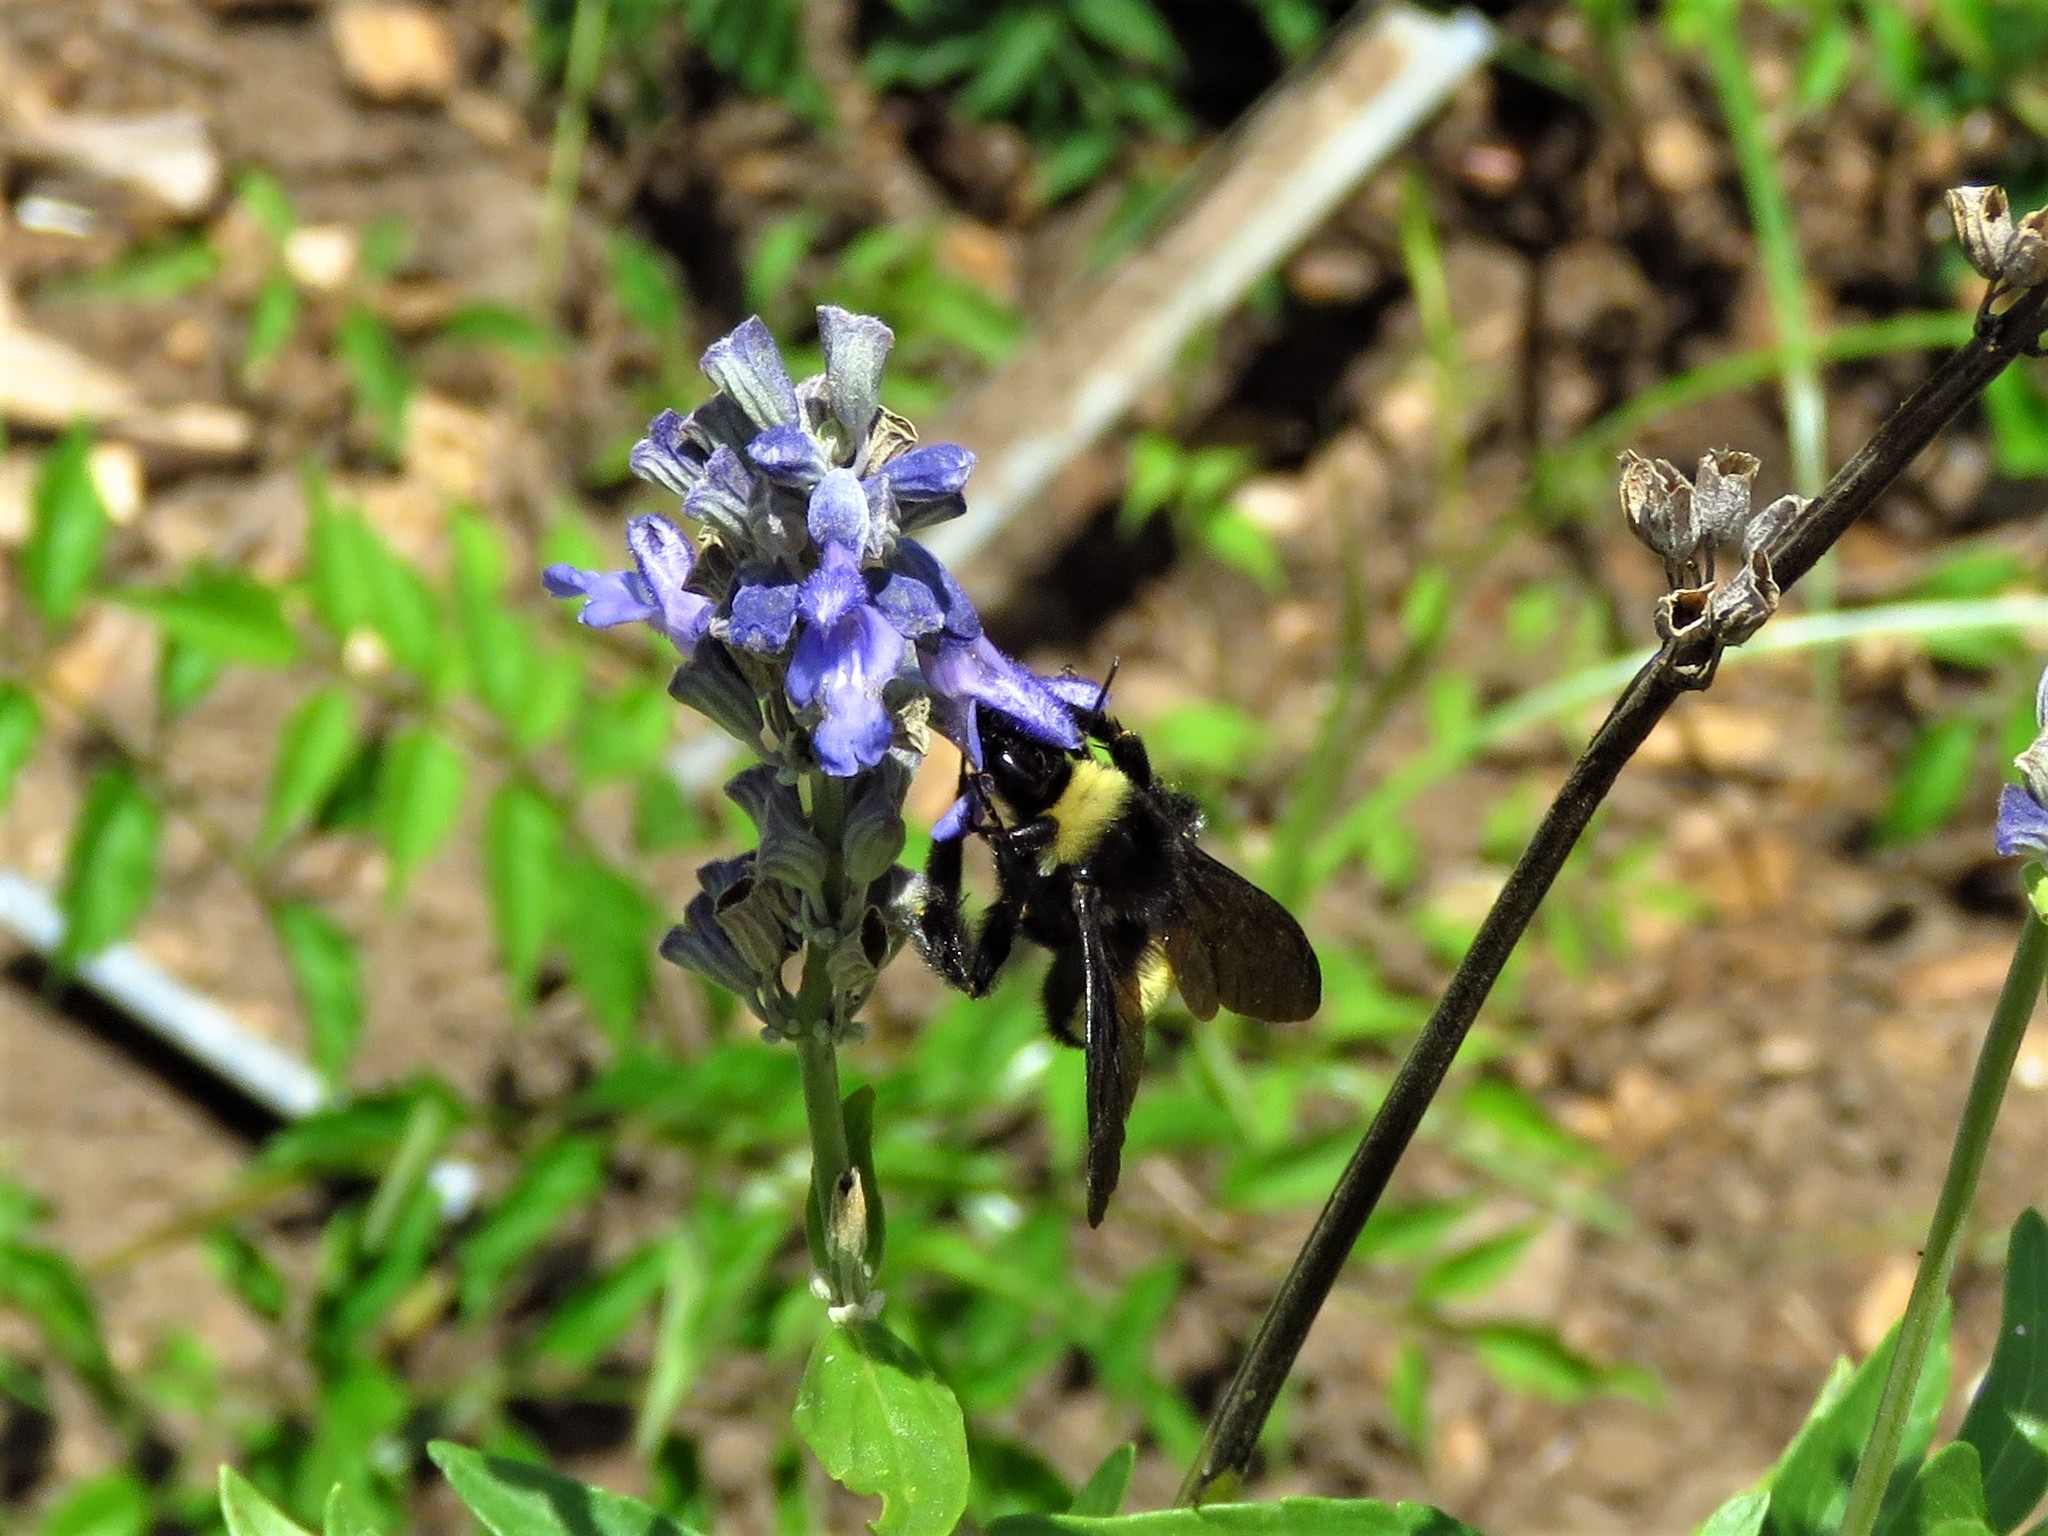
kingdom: Animalia
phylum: Arthropoda
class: Insecta
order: Hymenoptera
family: Apidae
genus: Bombus
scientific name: Bombus pensylvanicus
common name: Bumble bee
